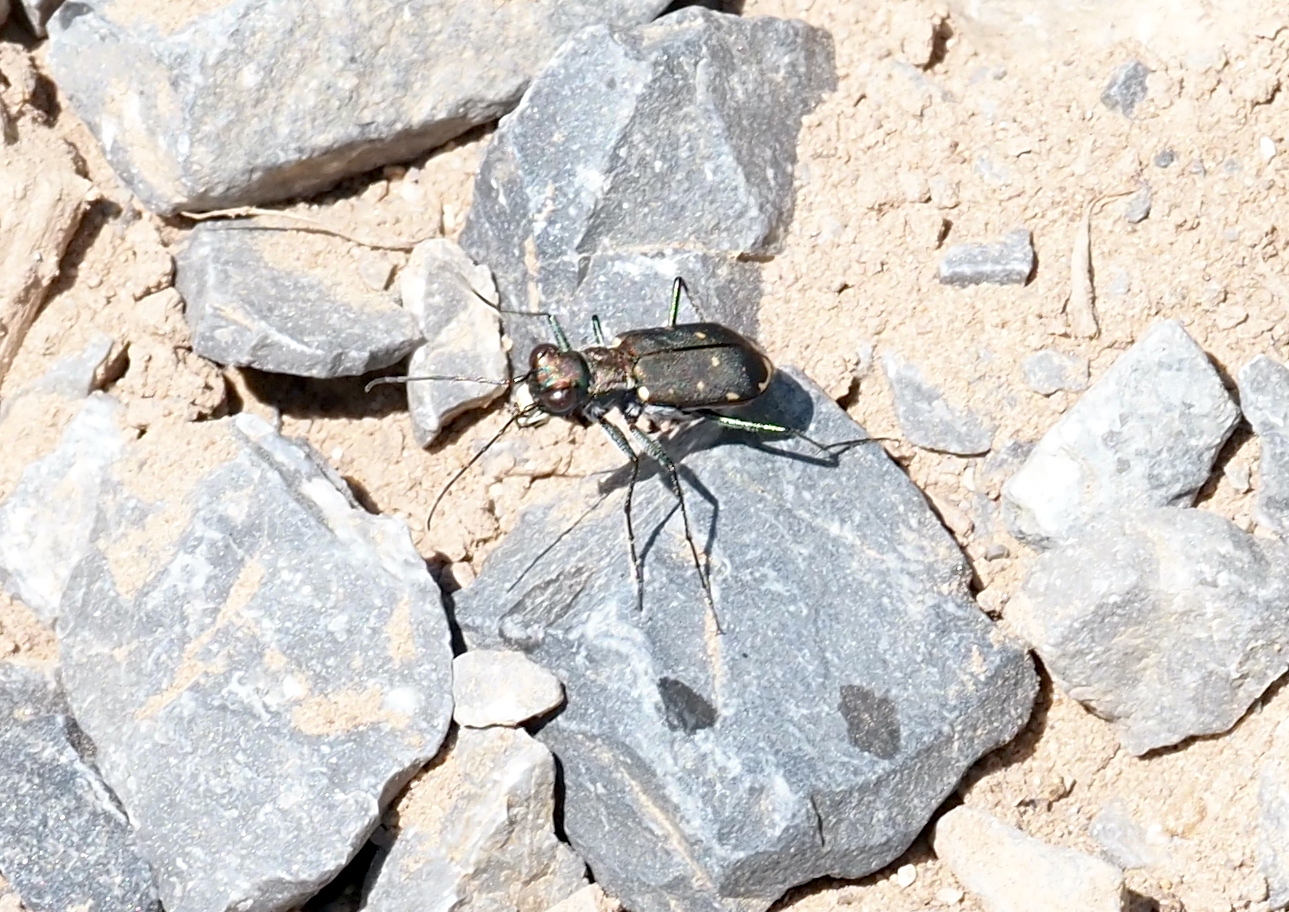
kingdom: Animalia
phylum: Arthropoda
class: Insecta
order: Coleoptera
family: Carabidae
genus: Cicindela
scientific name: Cicindela rufiventris
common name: Eastern red-bellied tiger beetle
